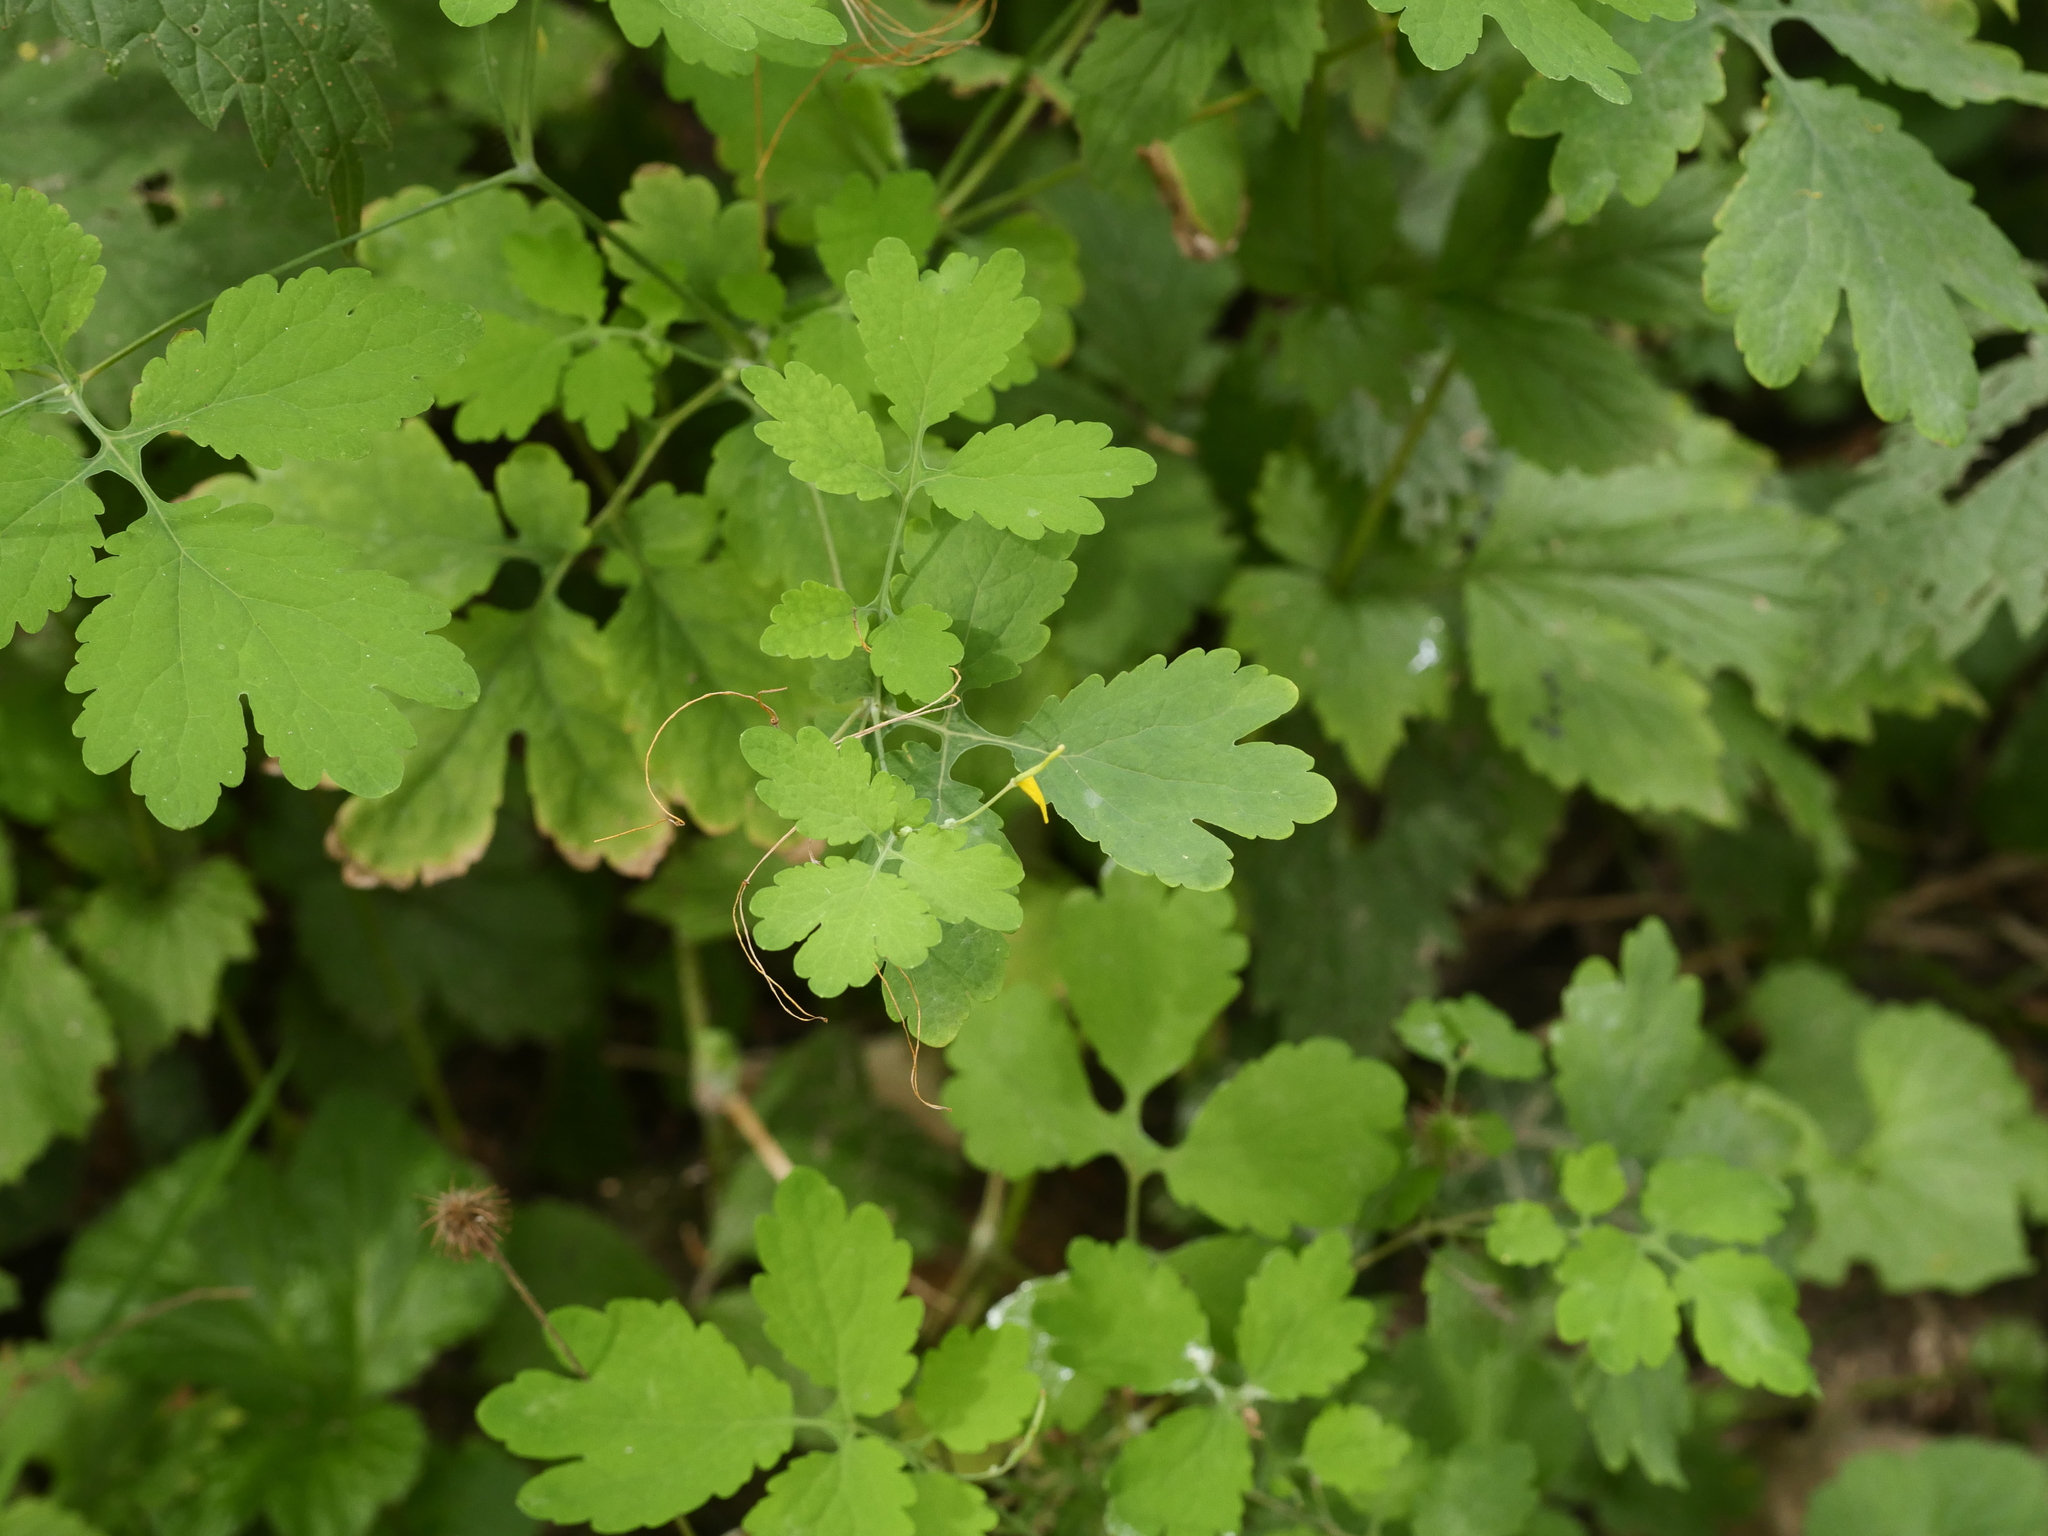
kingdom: Plantae
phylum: Tracheophyta
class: Magnoliopsida
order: Ranunculales
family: Papaveraceae
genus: Chelidonium
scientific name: Chelidonium majus
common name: Greater celandine
